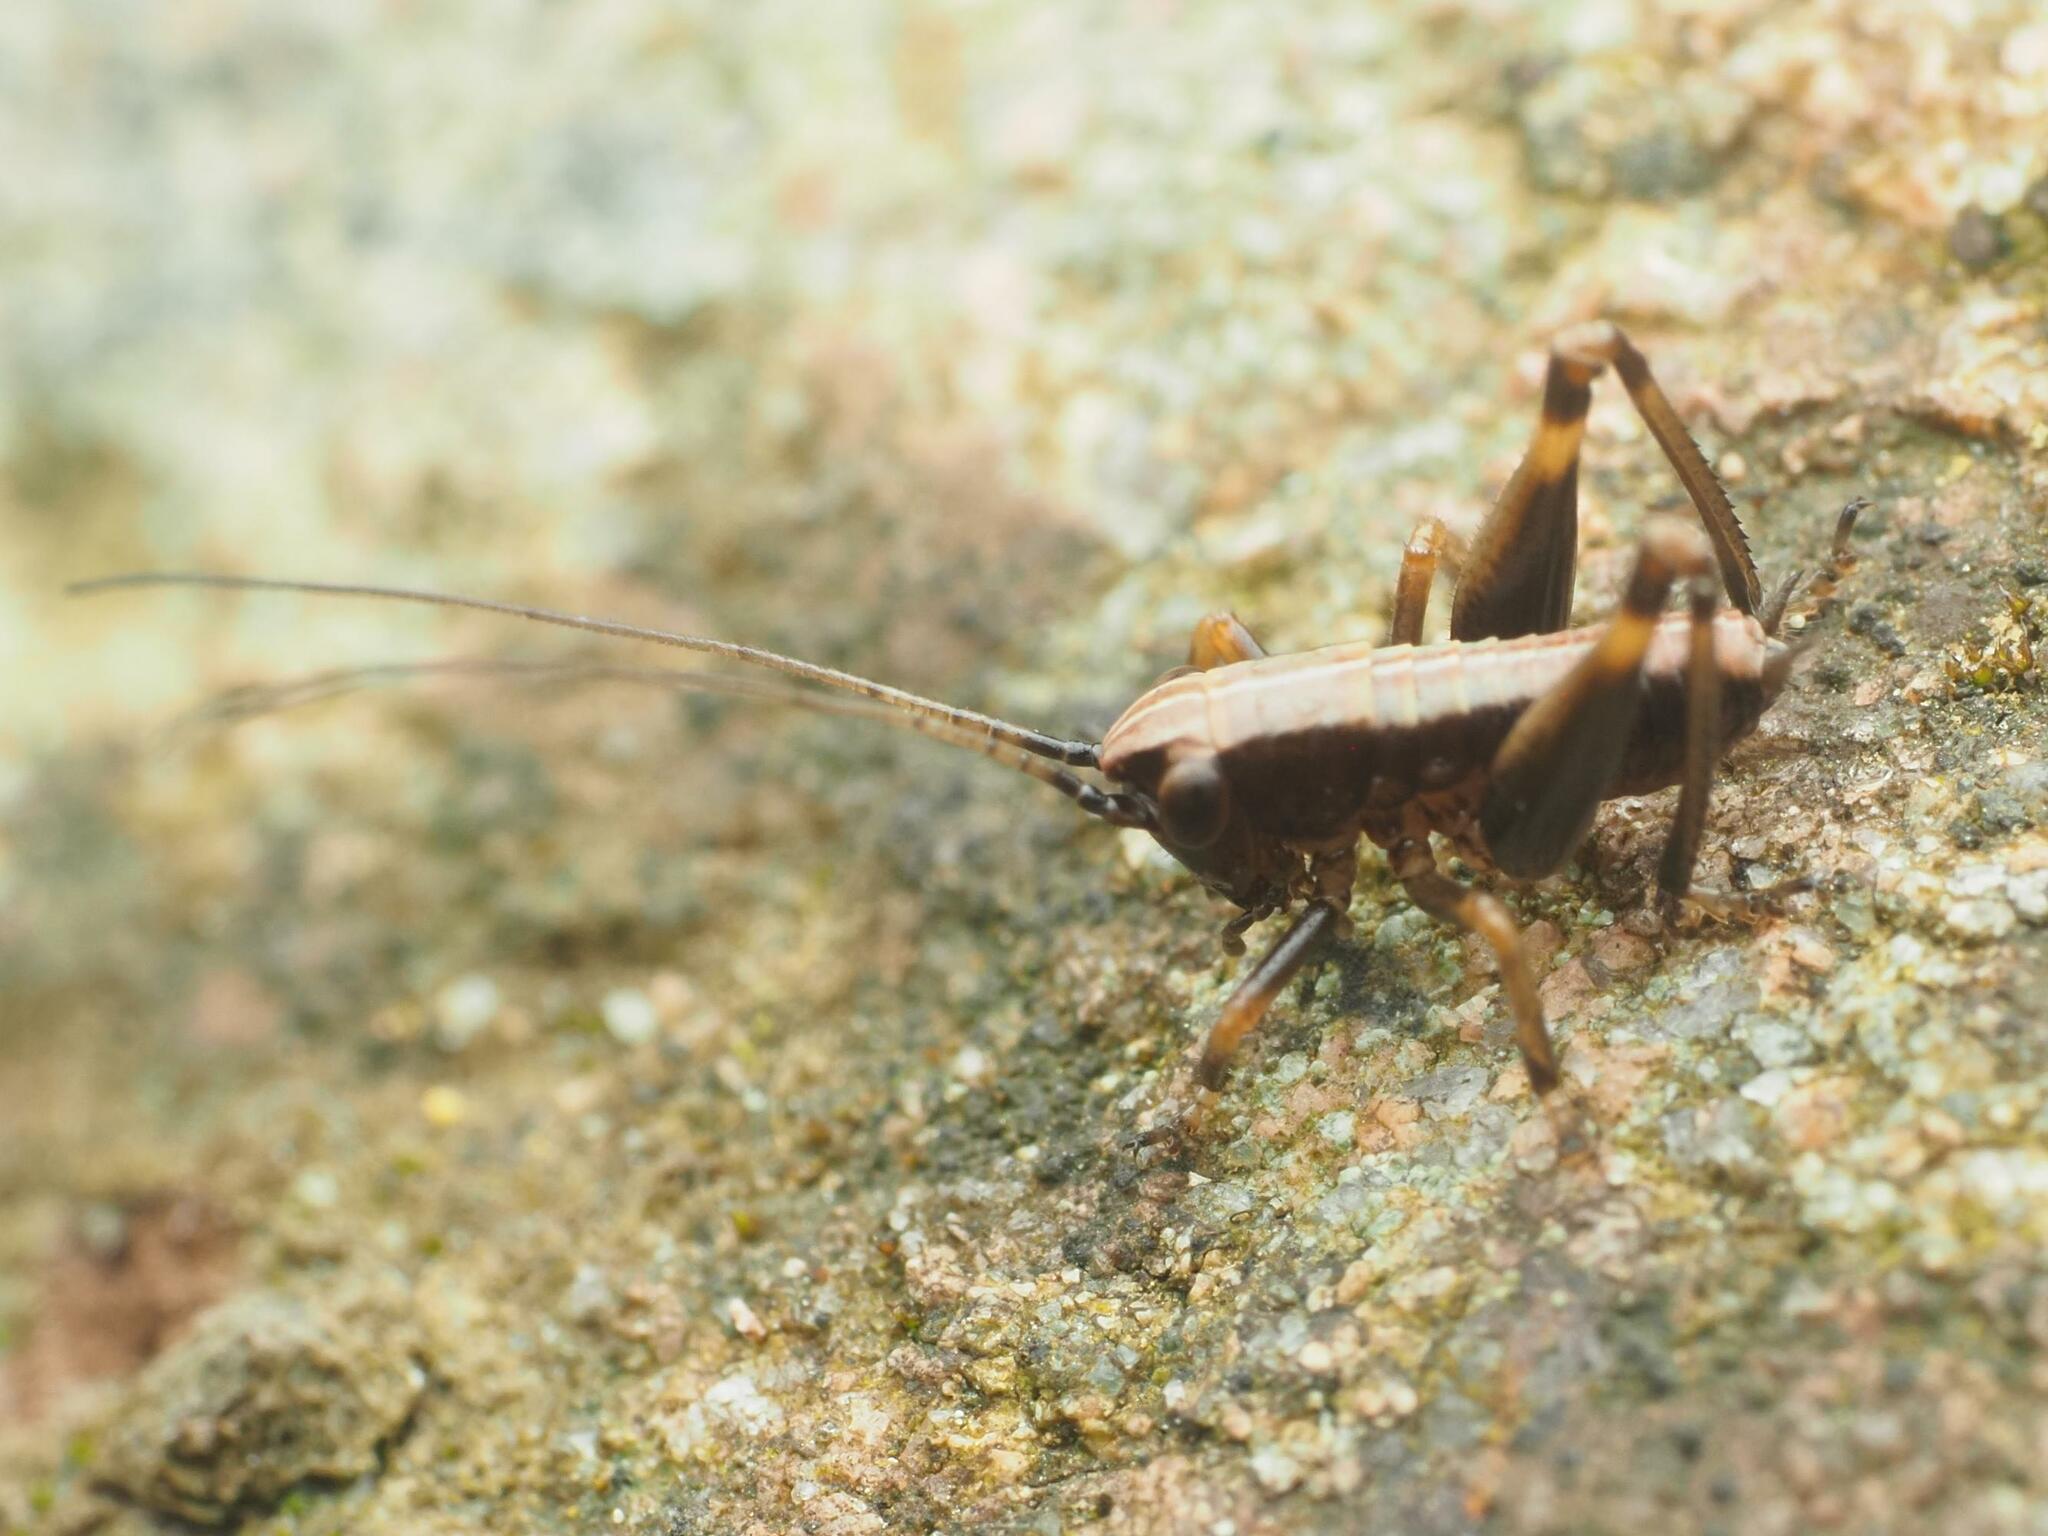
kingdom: Animalia
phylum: Arthropoda
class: Insecta
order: Orthoptera
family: Tettigoniidae
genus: Pholidoptera
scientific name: Pholidoptera griseoaptera
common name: Dark bush-cricket
